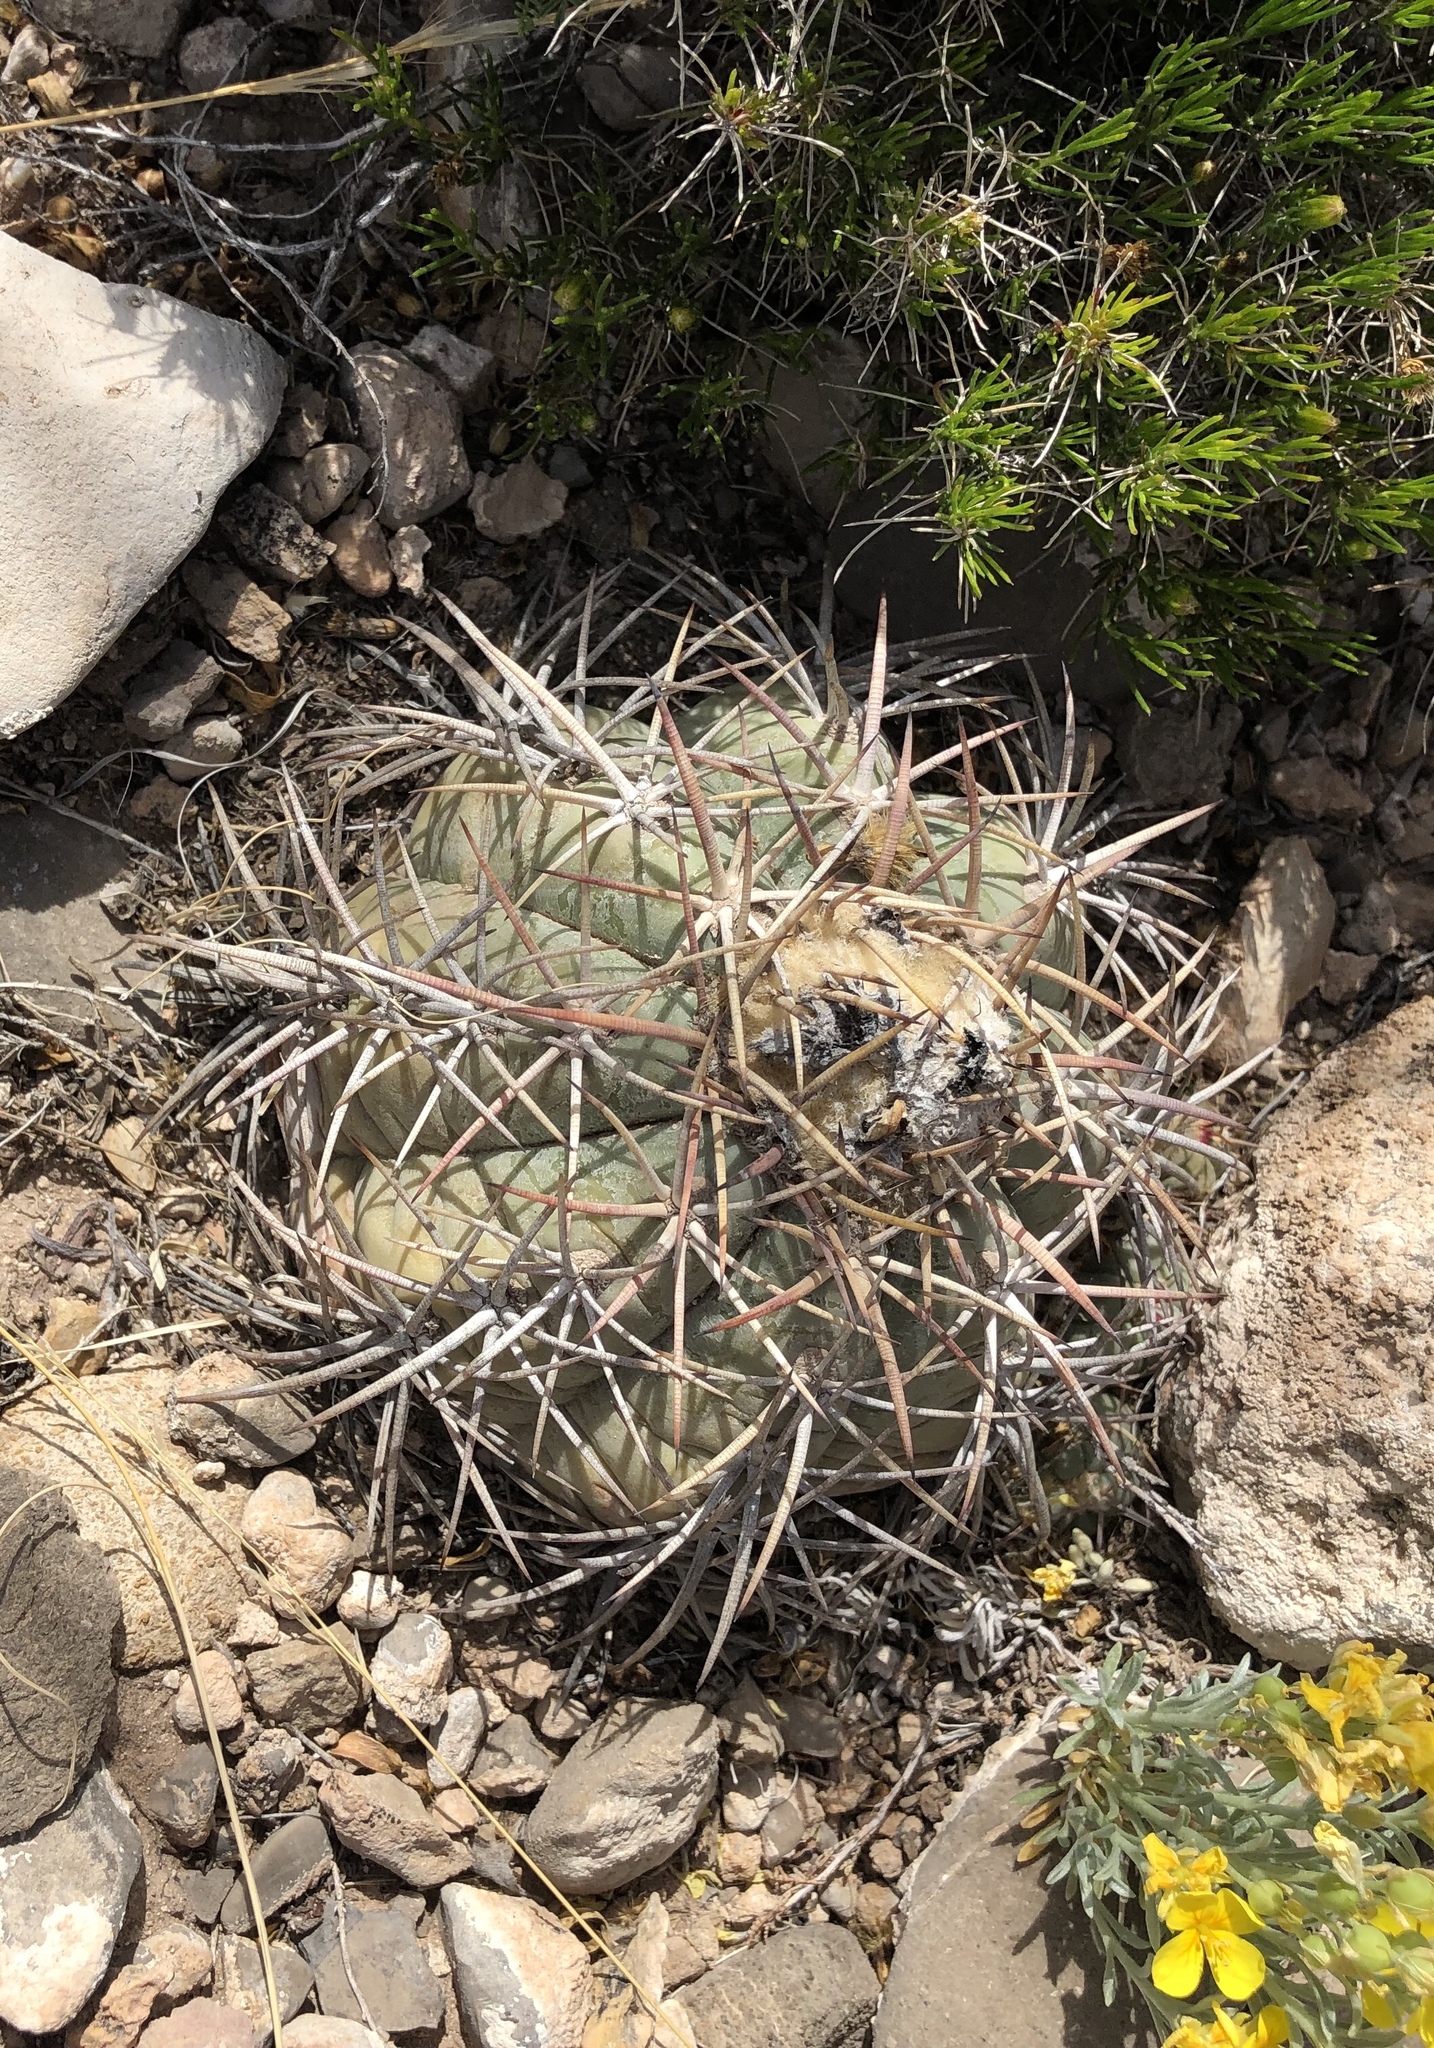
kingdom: Plantae
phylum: Tracheophyta
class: Magnoliopsida
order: Caryophyllales
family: Cactaceae
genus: Echinocactus
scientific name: Echinocactus horizonthalonius
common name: Devilshead
